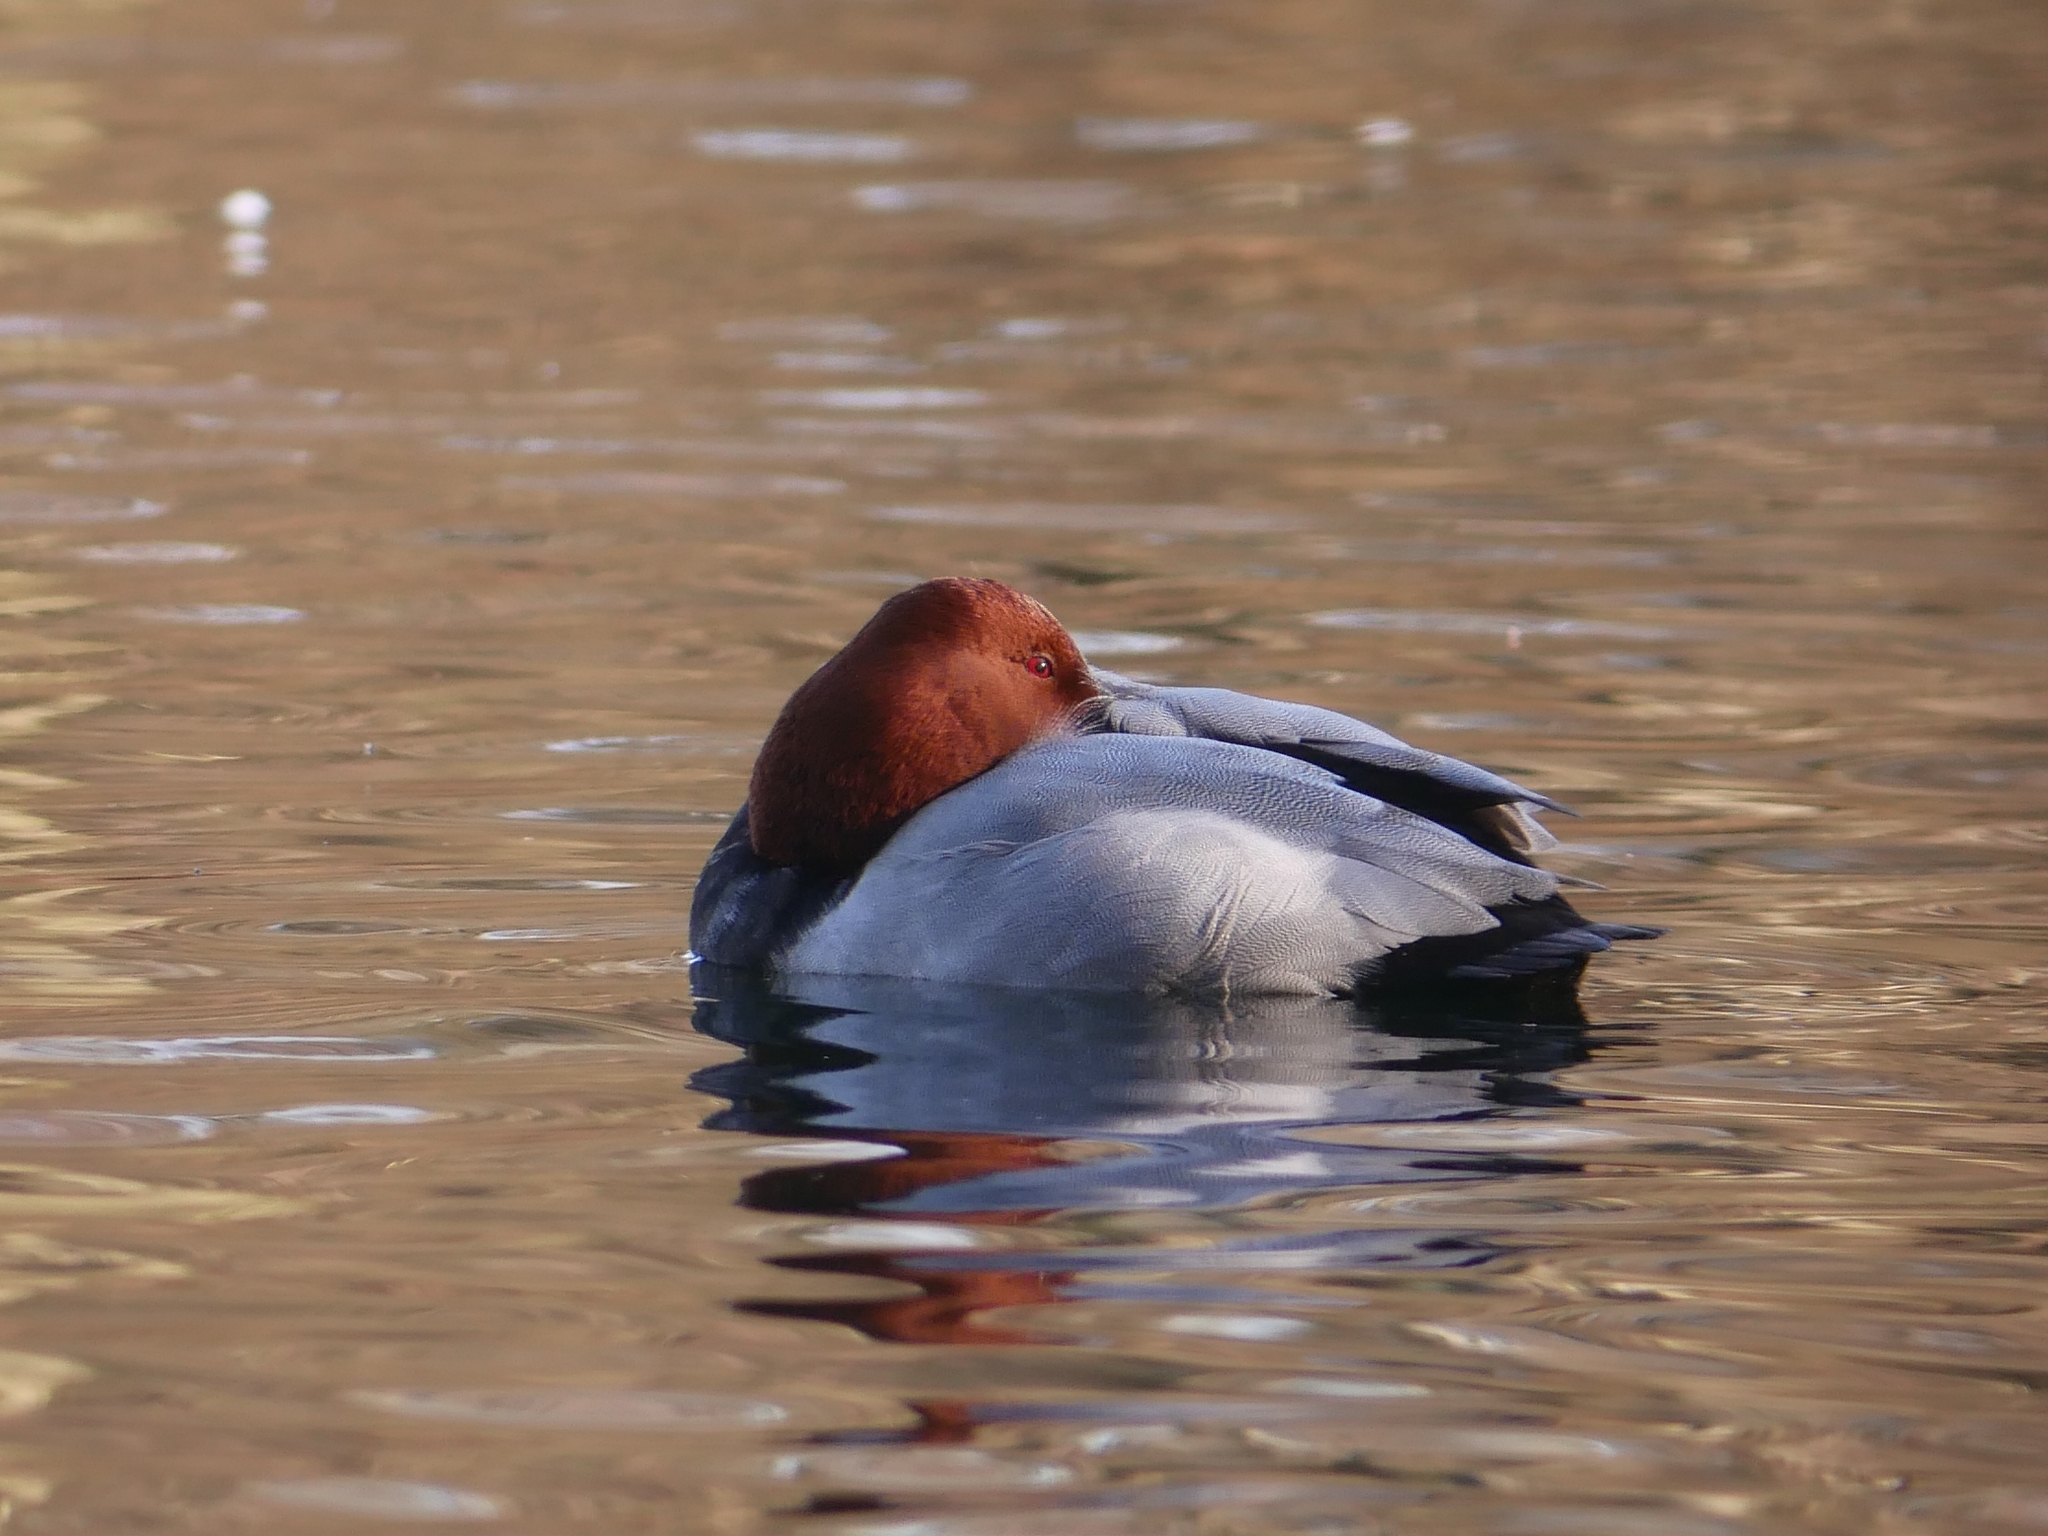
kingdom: Animalia
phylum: Chordata
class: Aves
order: Anseriformes
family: Anatidae
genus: Aythya
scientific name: Aythya ferina
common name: Common pochard
